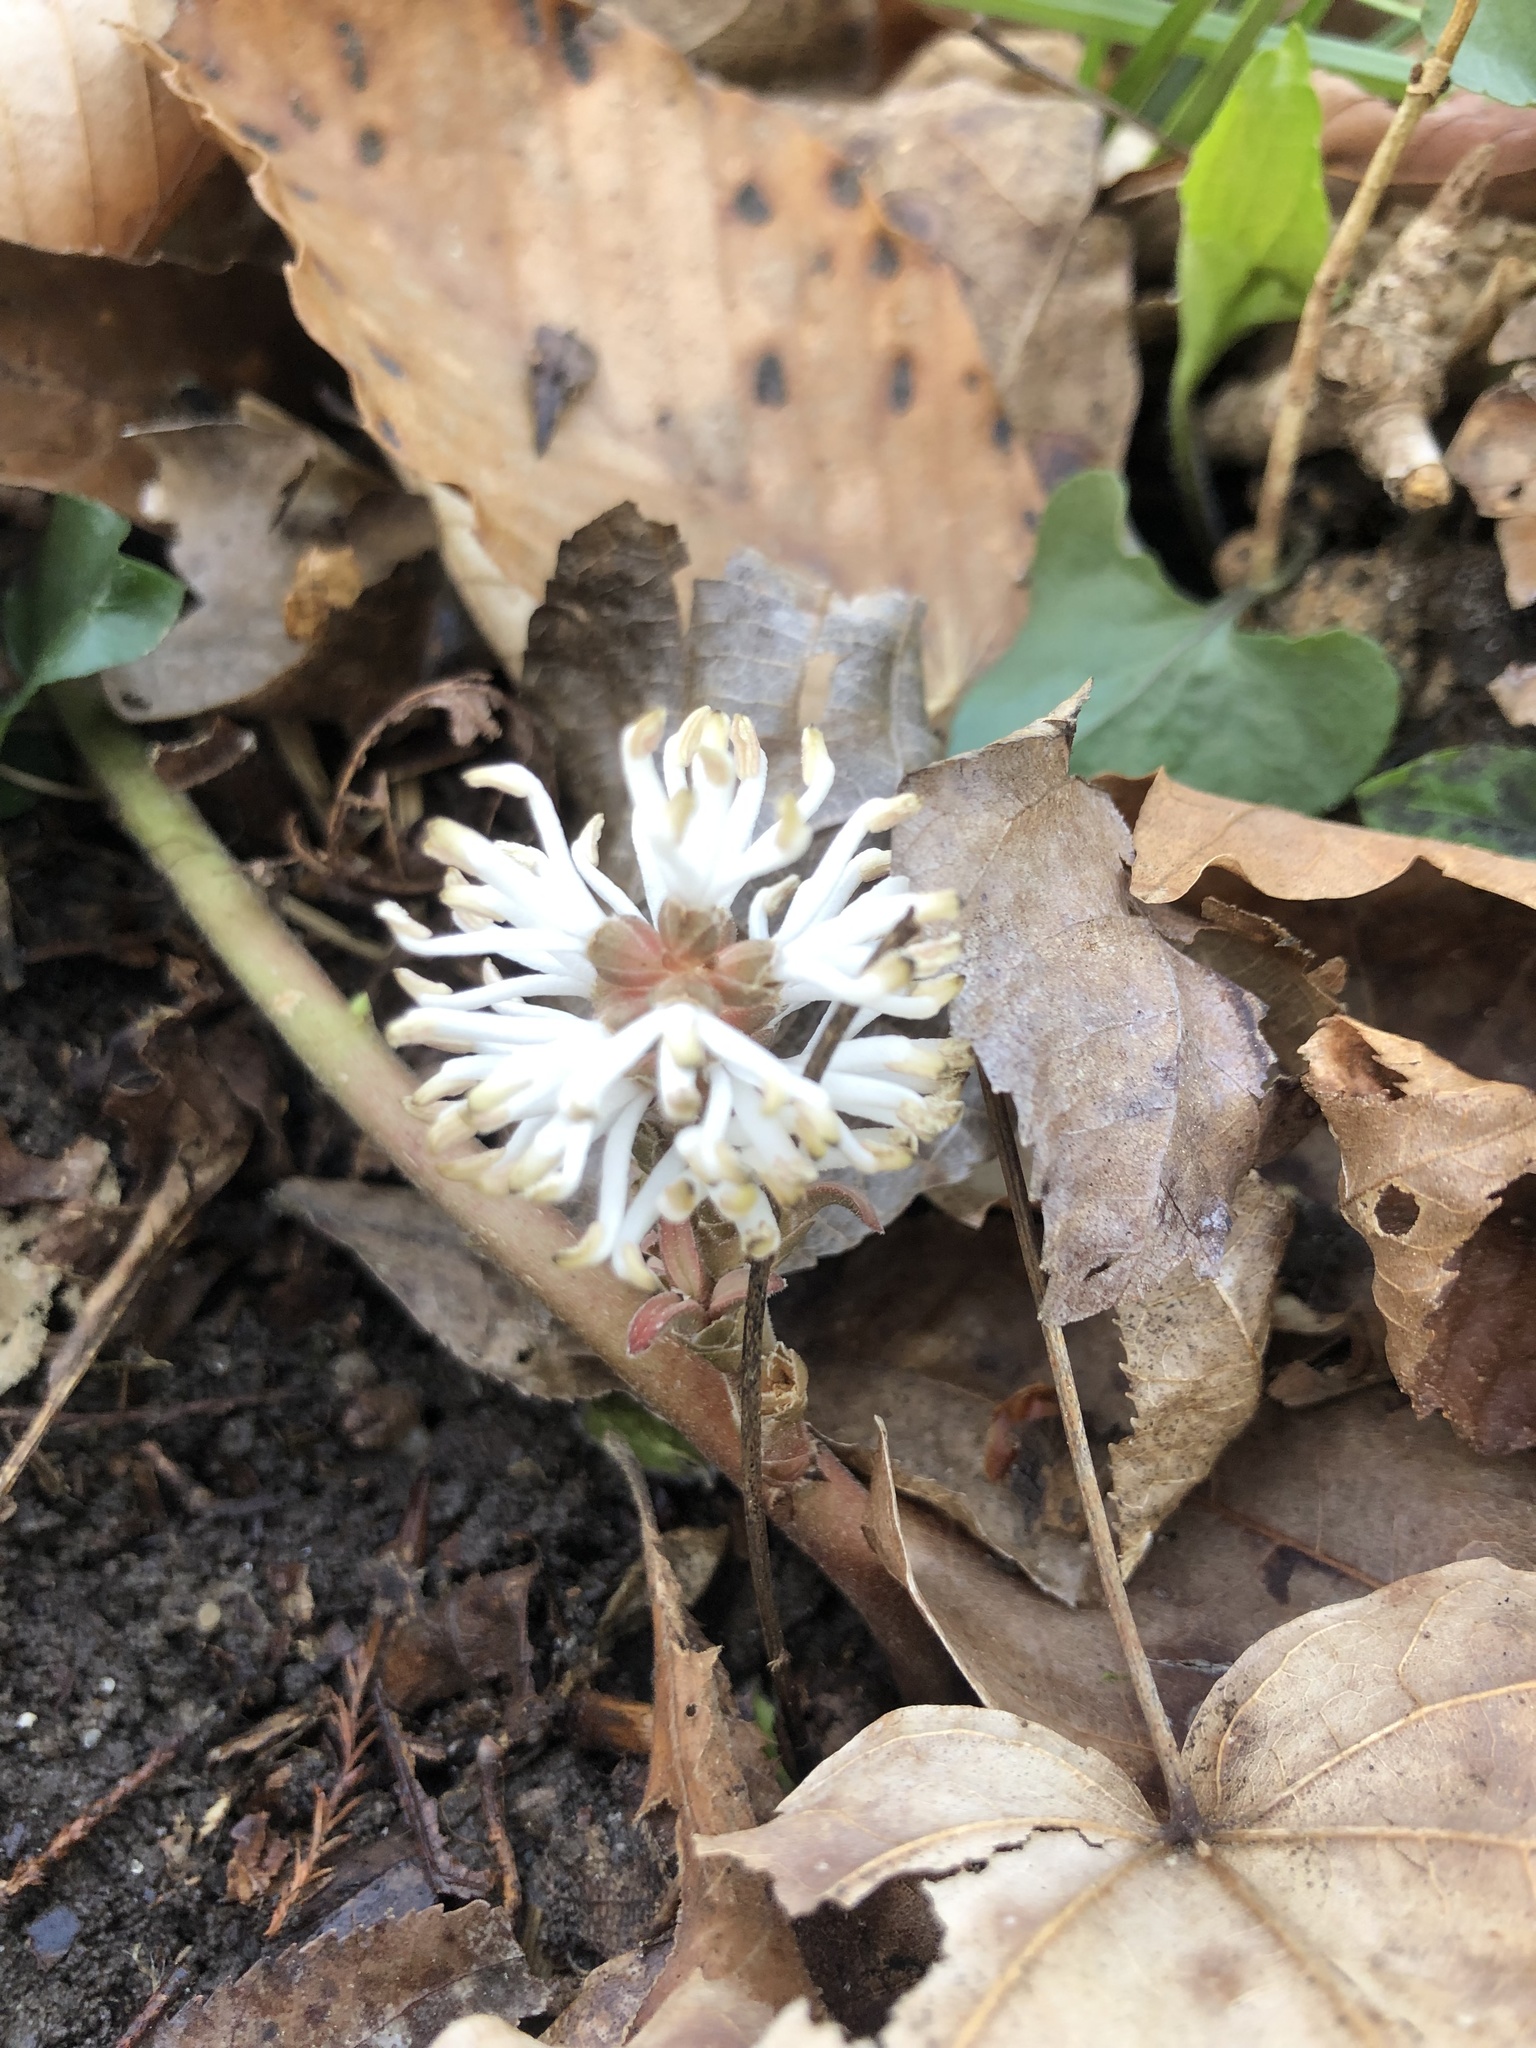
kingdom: Plantae
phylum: Tracheophyta
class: Magnoliopsida
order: Buxales
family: Buxaceae
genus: Pachysandra
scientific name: Pachysandra procumbens
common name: Mountain-spurge
